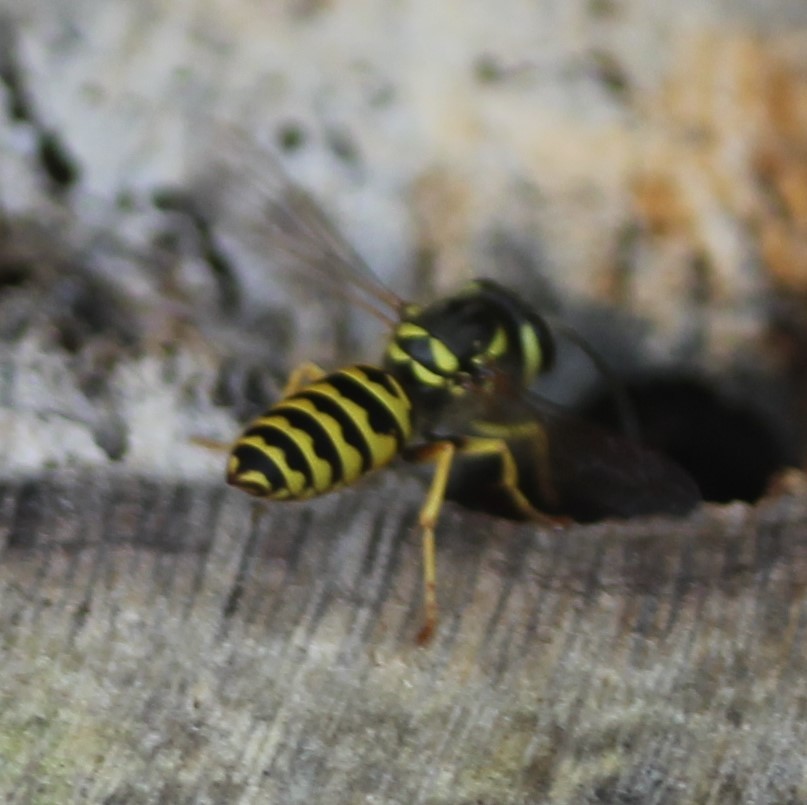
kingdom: Animalia
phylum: Arthropoda
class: Insecta
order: Hymenoptera
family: Vespidae
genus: Vespula
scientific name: Vespula maculifrons
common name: Eastern yellowjacket
